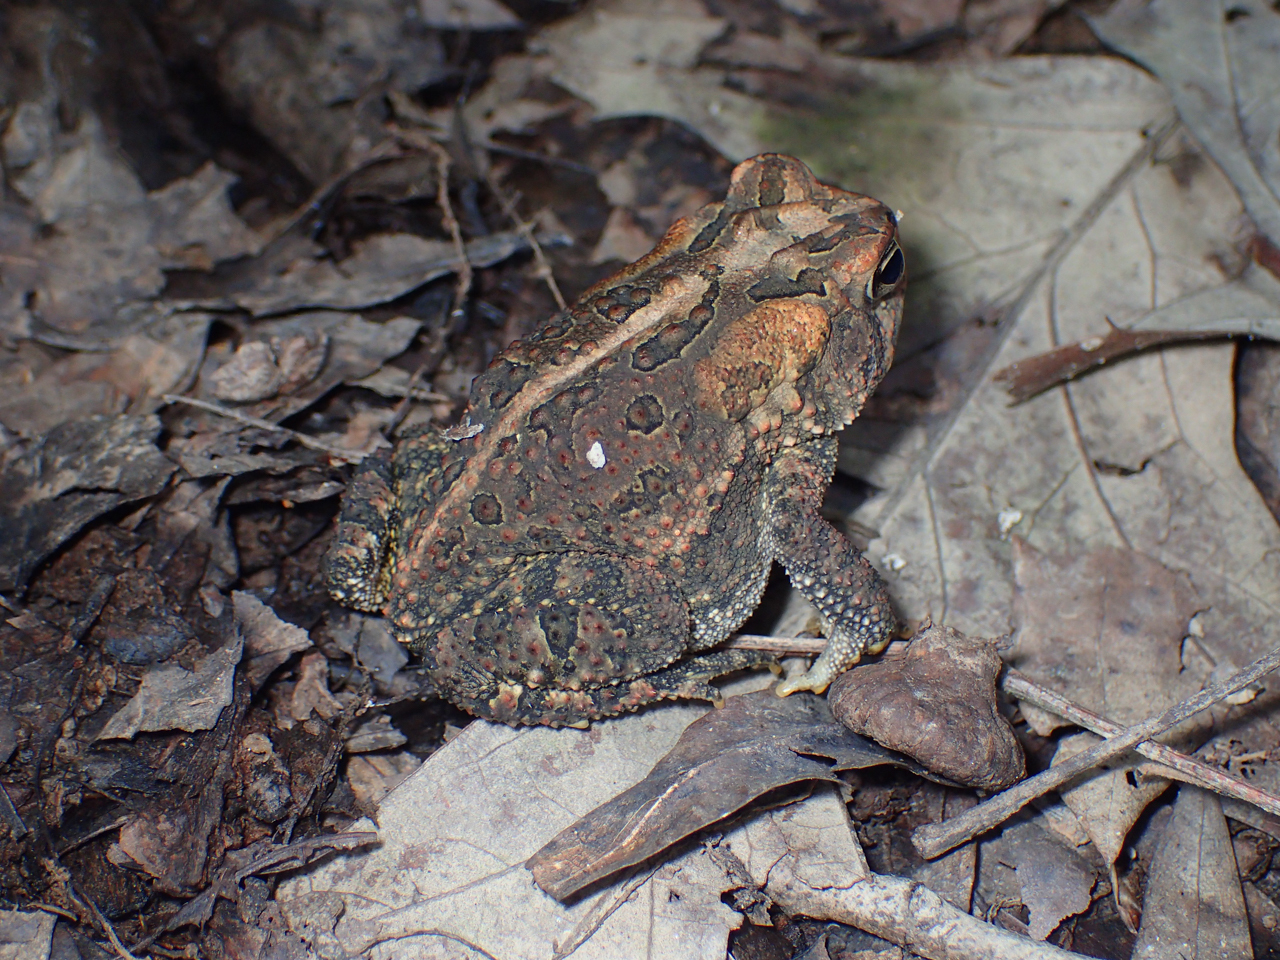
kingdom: Animalia
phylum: Chordata
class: Amphibia
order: Anura
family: Bufonidae
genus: Anaxyrus
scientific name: Anaxyrus terrestris
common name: Southern toad
